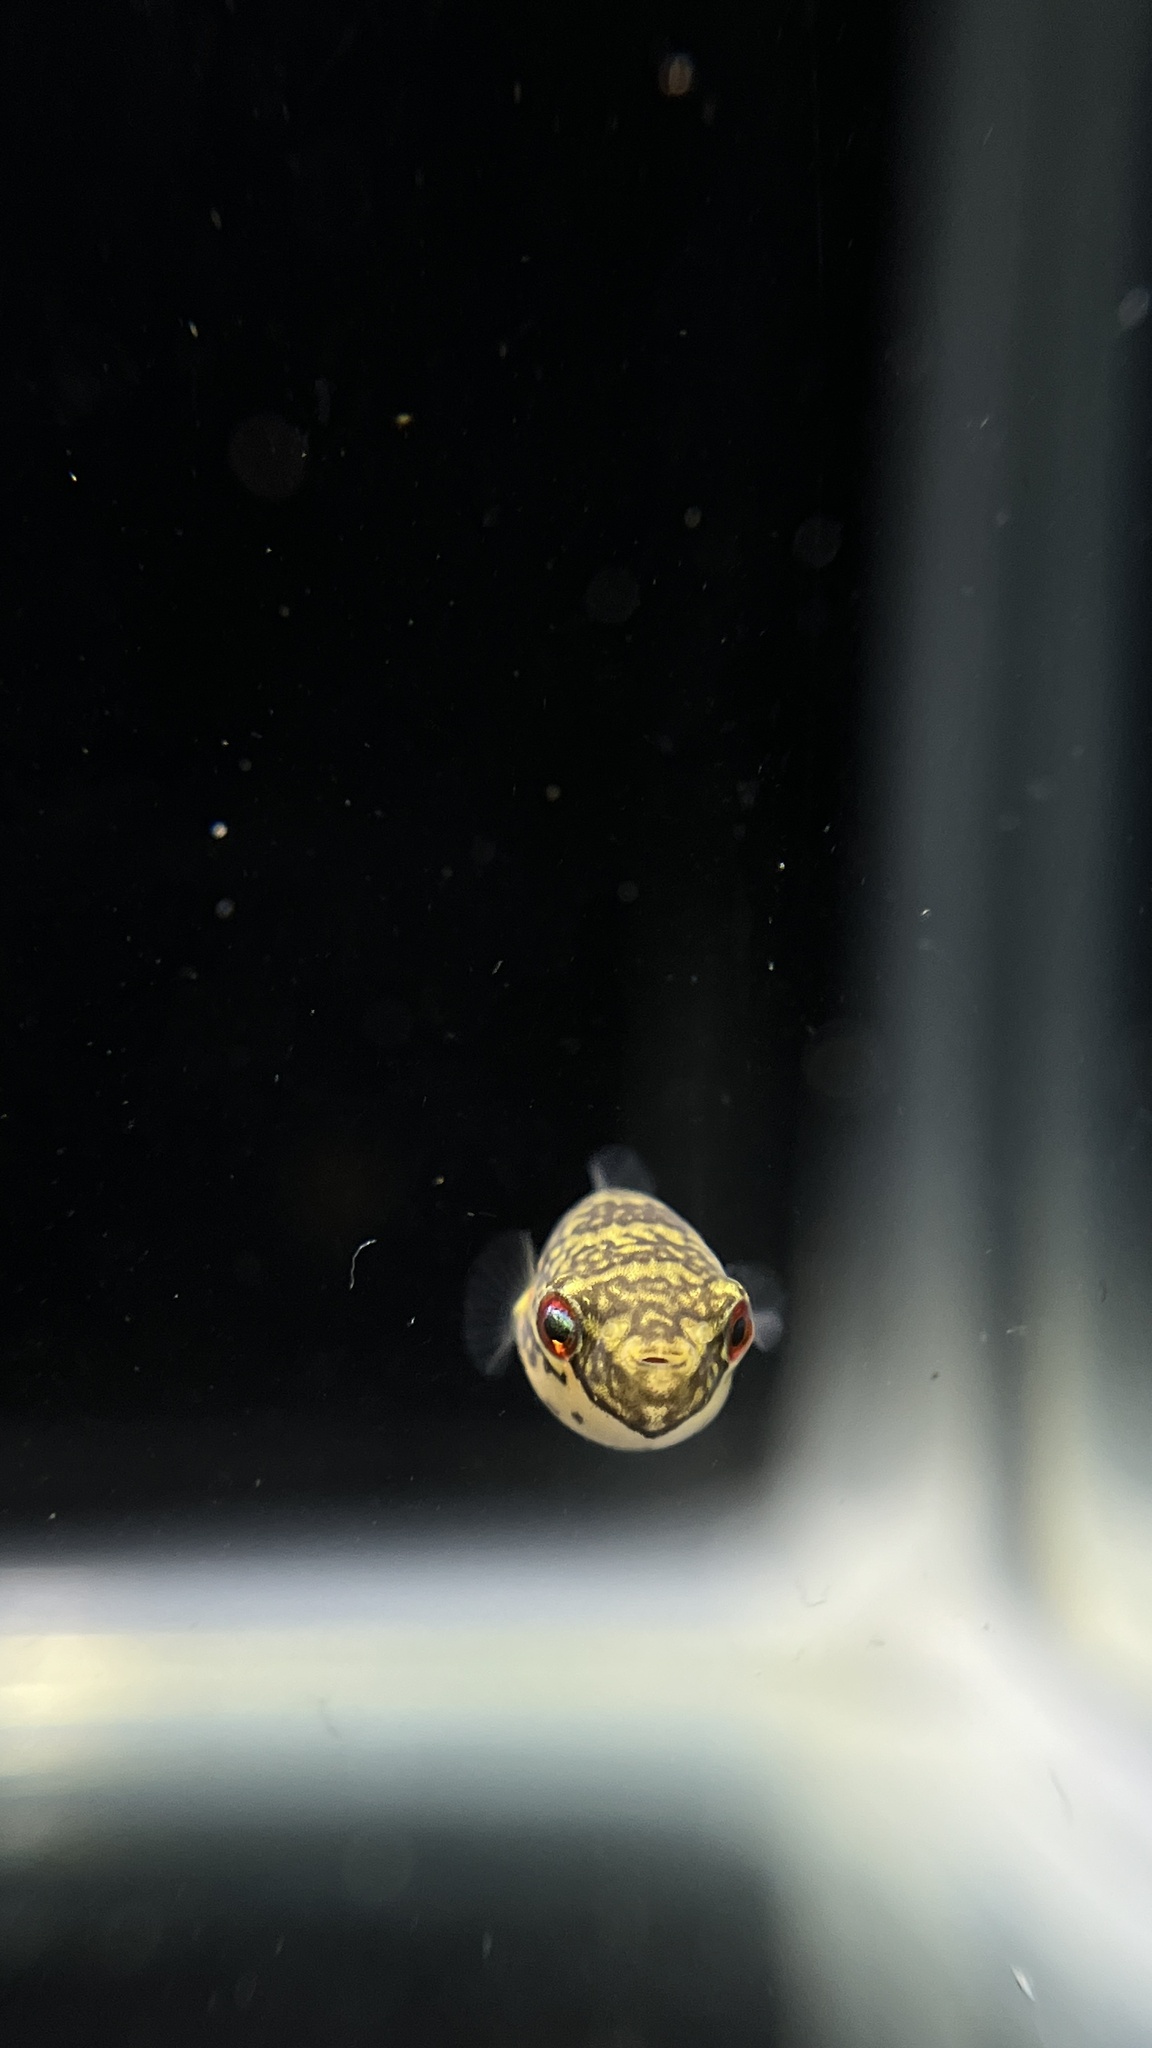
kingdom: Animalia
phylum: Chordata
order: Tetraodontiformes
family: Tetraodontidae
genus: Carinotetraodon
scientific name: Carinotetraodon lorteti
